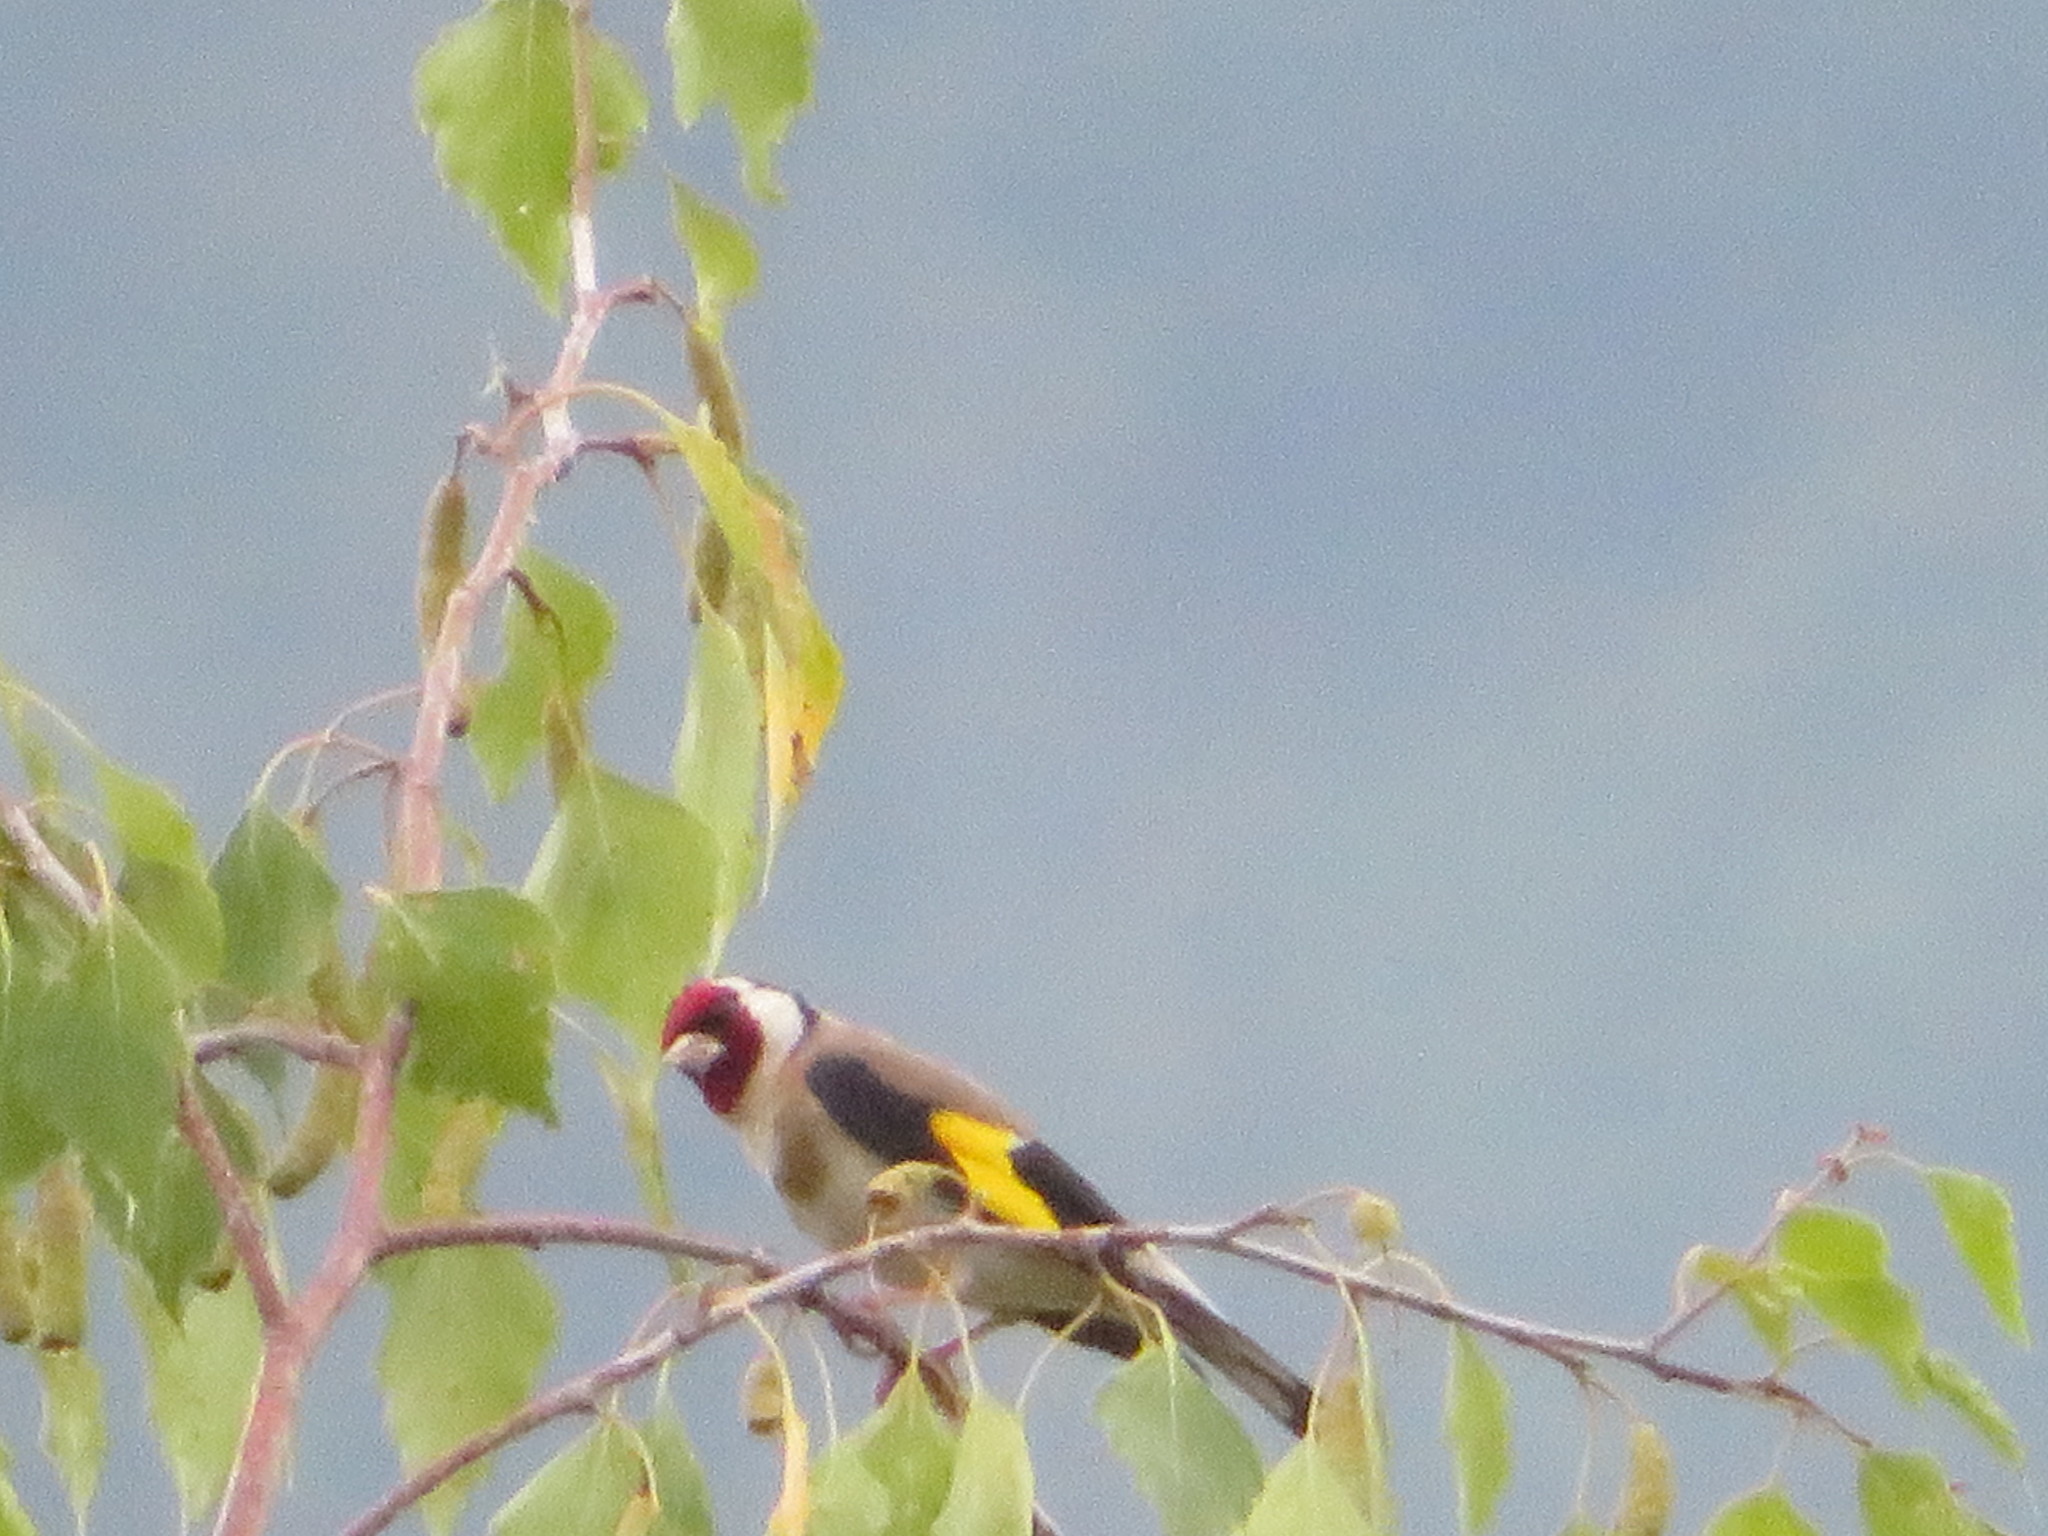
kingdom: Animalia
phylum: Chordata
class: Aves
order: Passeriformes
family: Fringillidae
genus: Carduelis
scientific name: Carduelis carduelis
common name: European goldfinch
